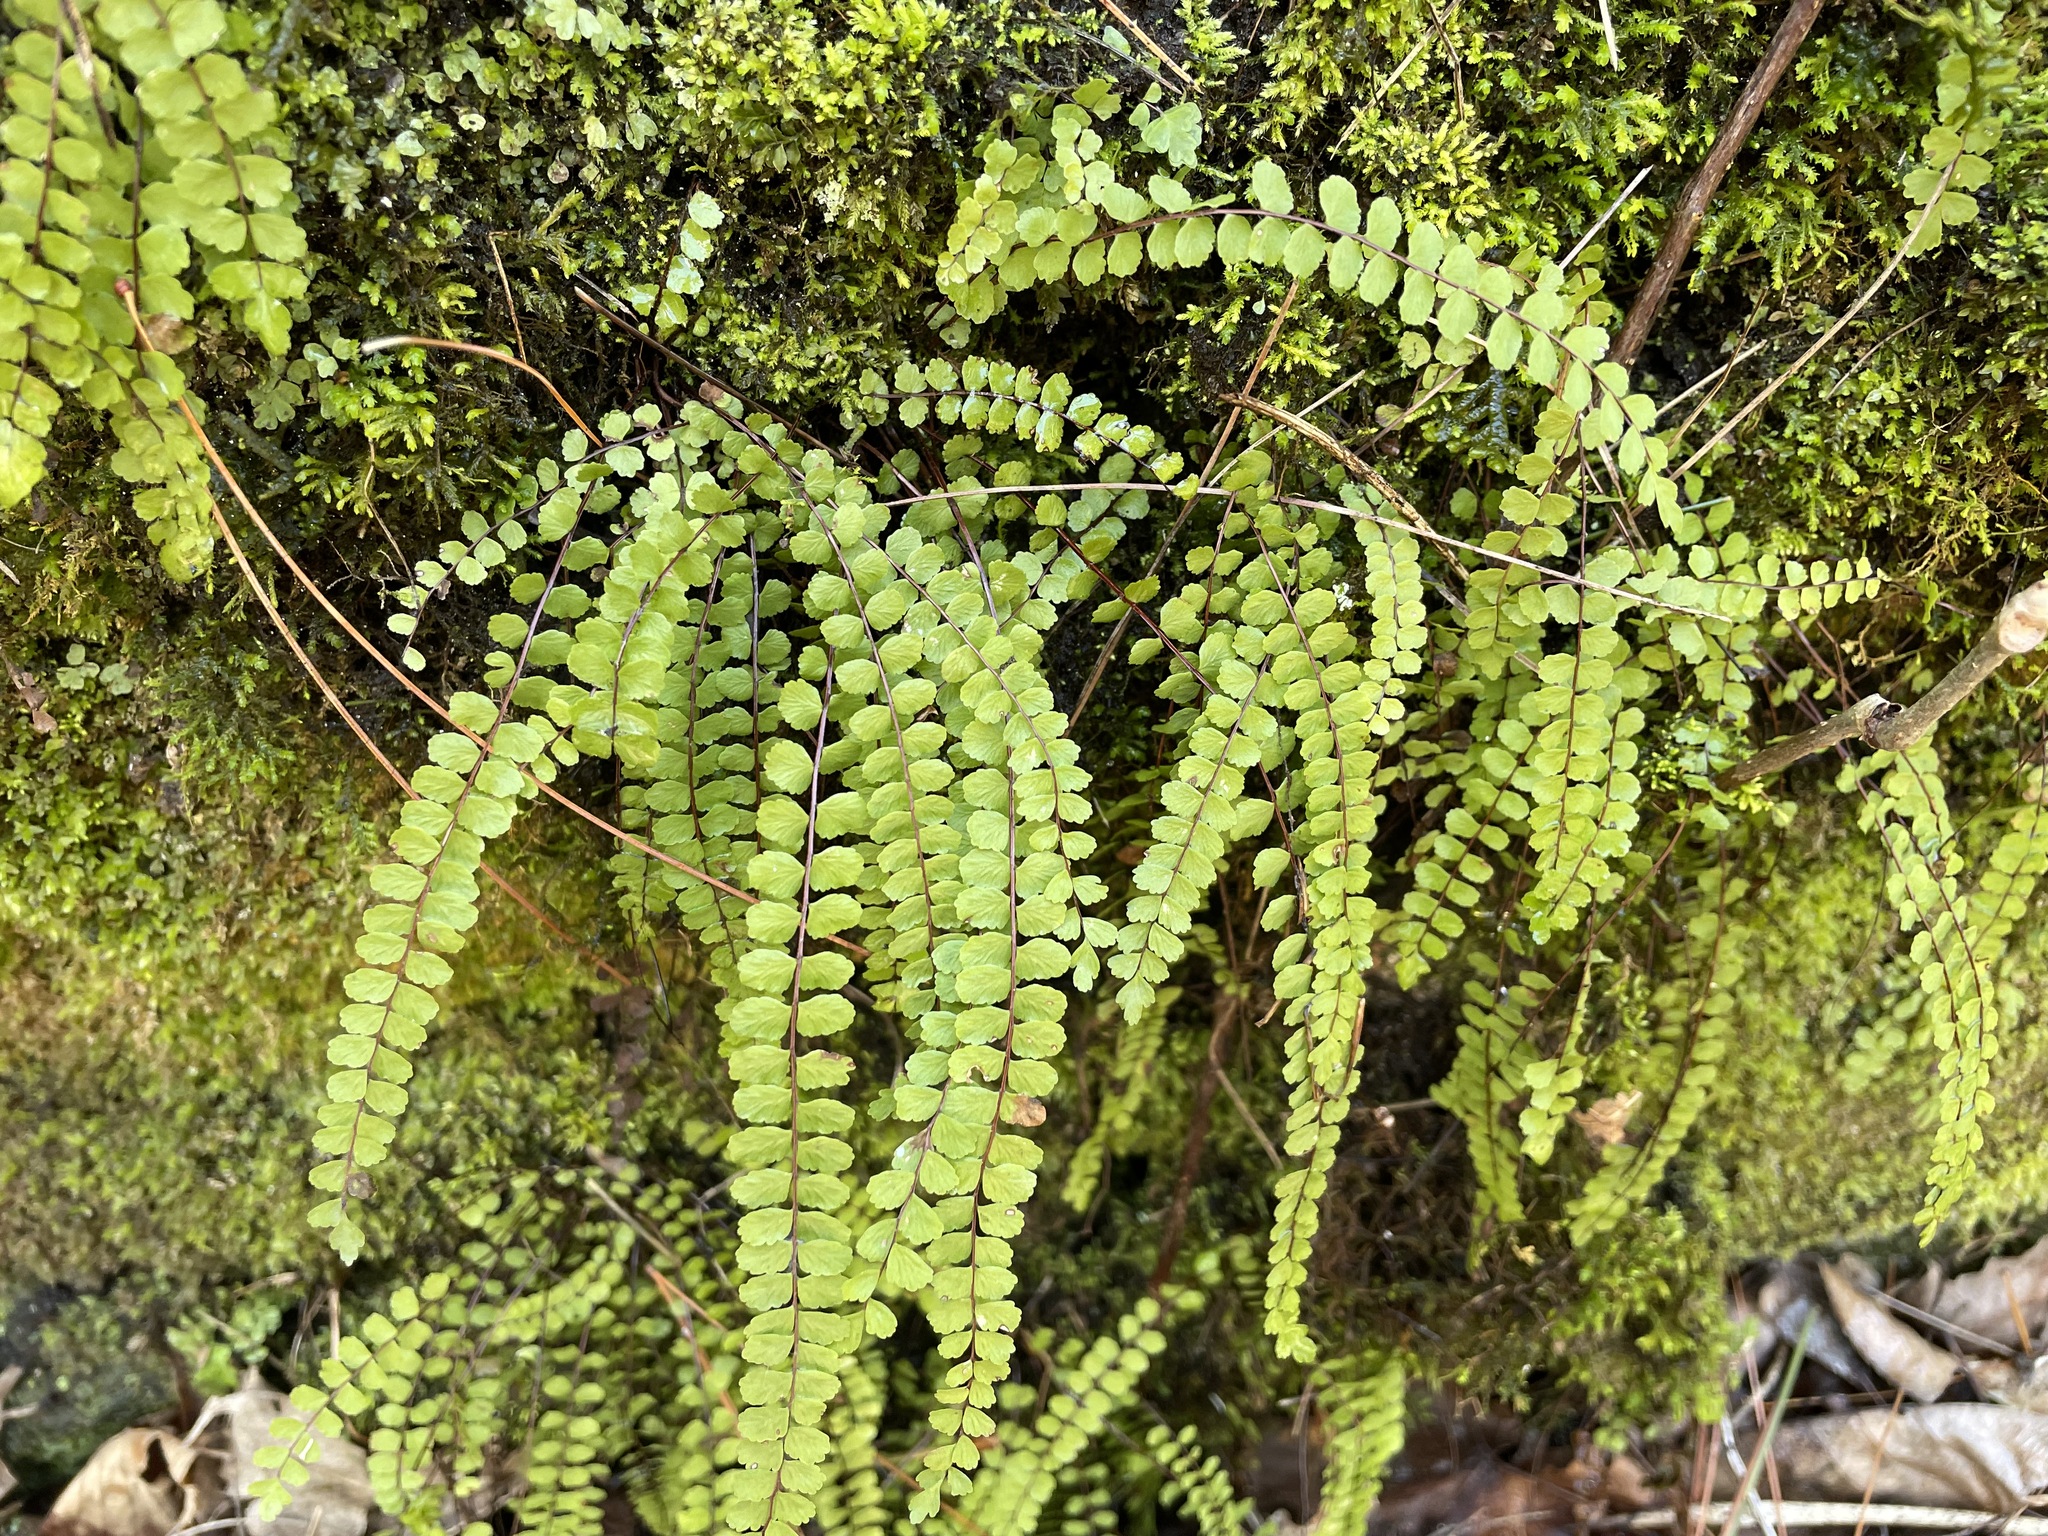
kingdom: Plantae
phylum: Tracheophyta
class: Polypodiopsida
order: Polypodiales
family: Aspleniaceae
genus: Asplenium
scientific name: Asplenium trichomanes
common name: Maidenhair spleenwort
